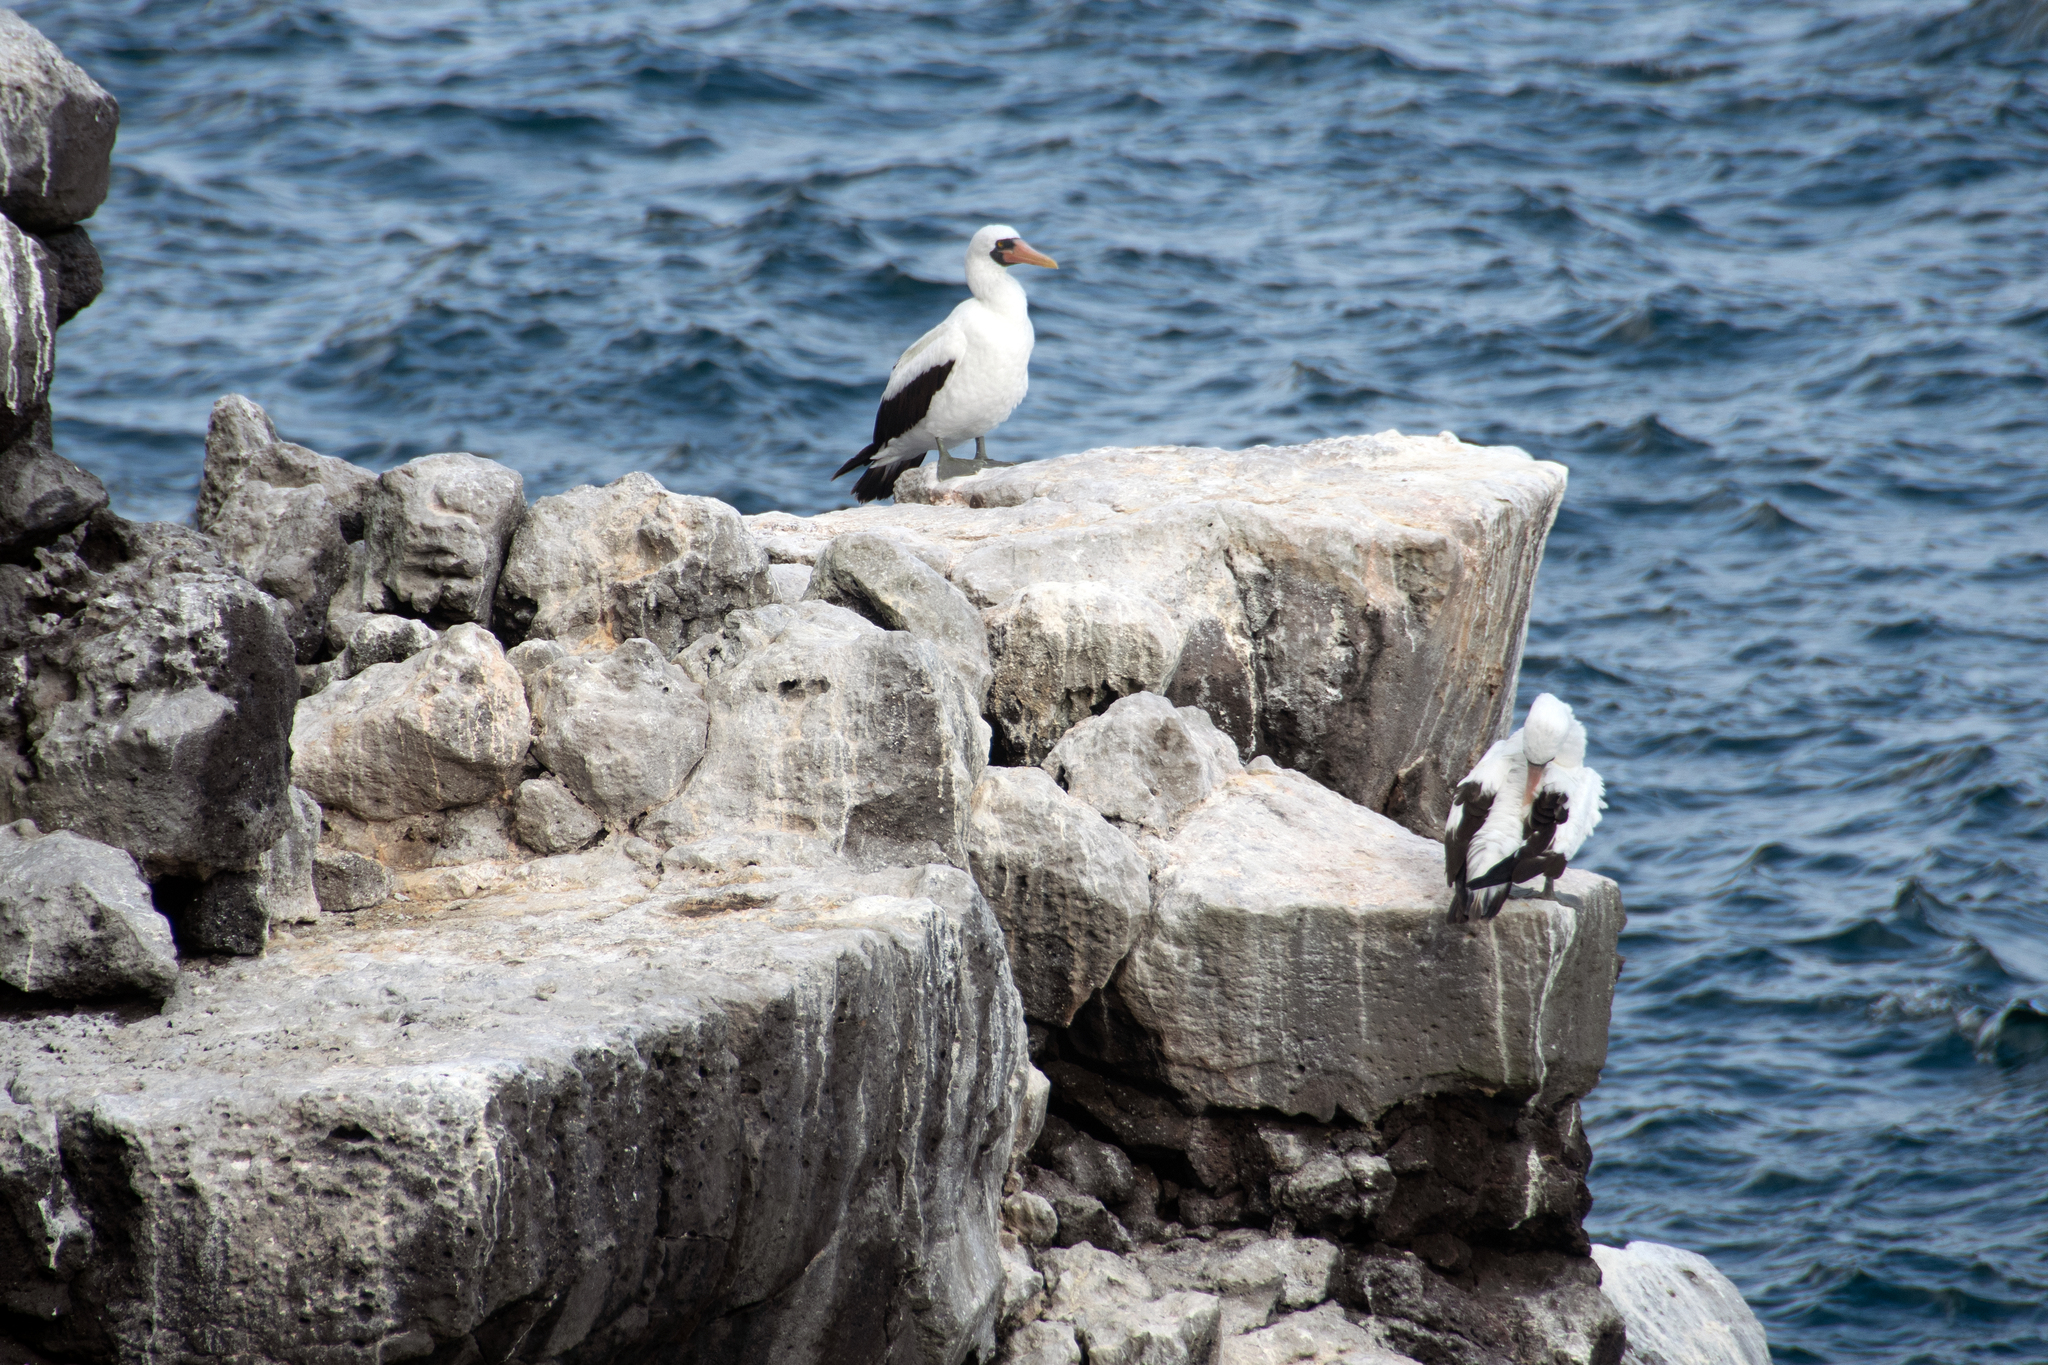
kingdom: Animalia
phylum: Chordata
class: Aves
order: Suliformes
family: Sulidae
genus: Sula
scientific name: Sula granti
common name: Nazca booby
